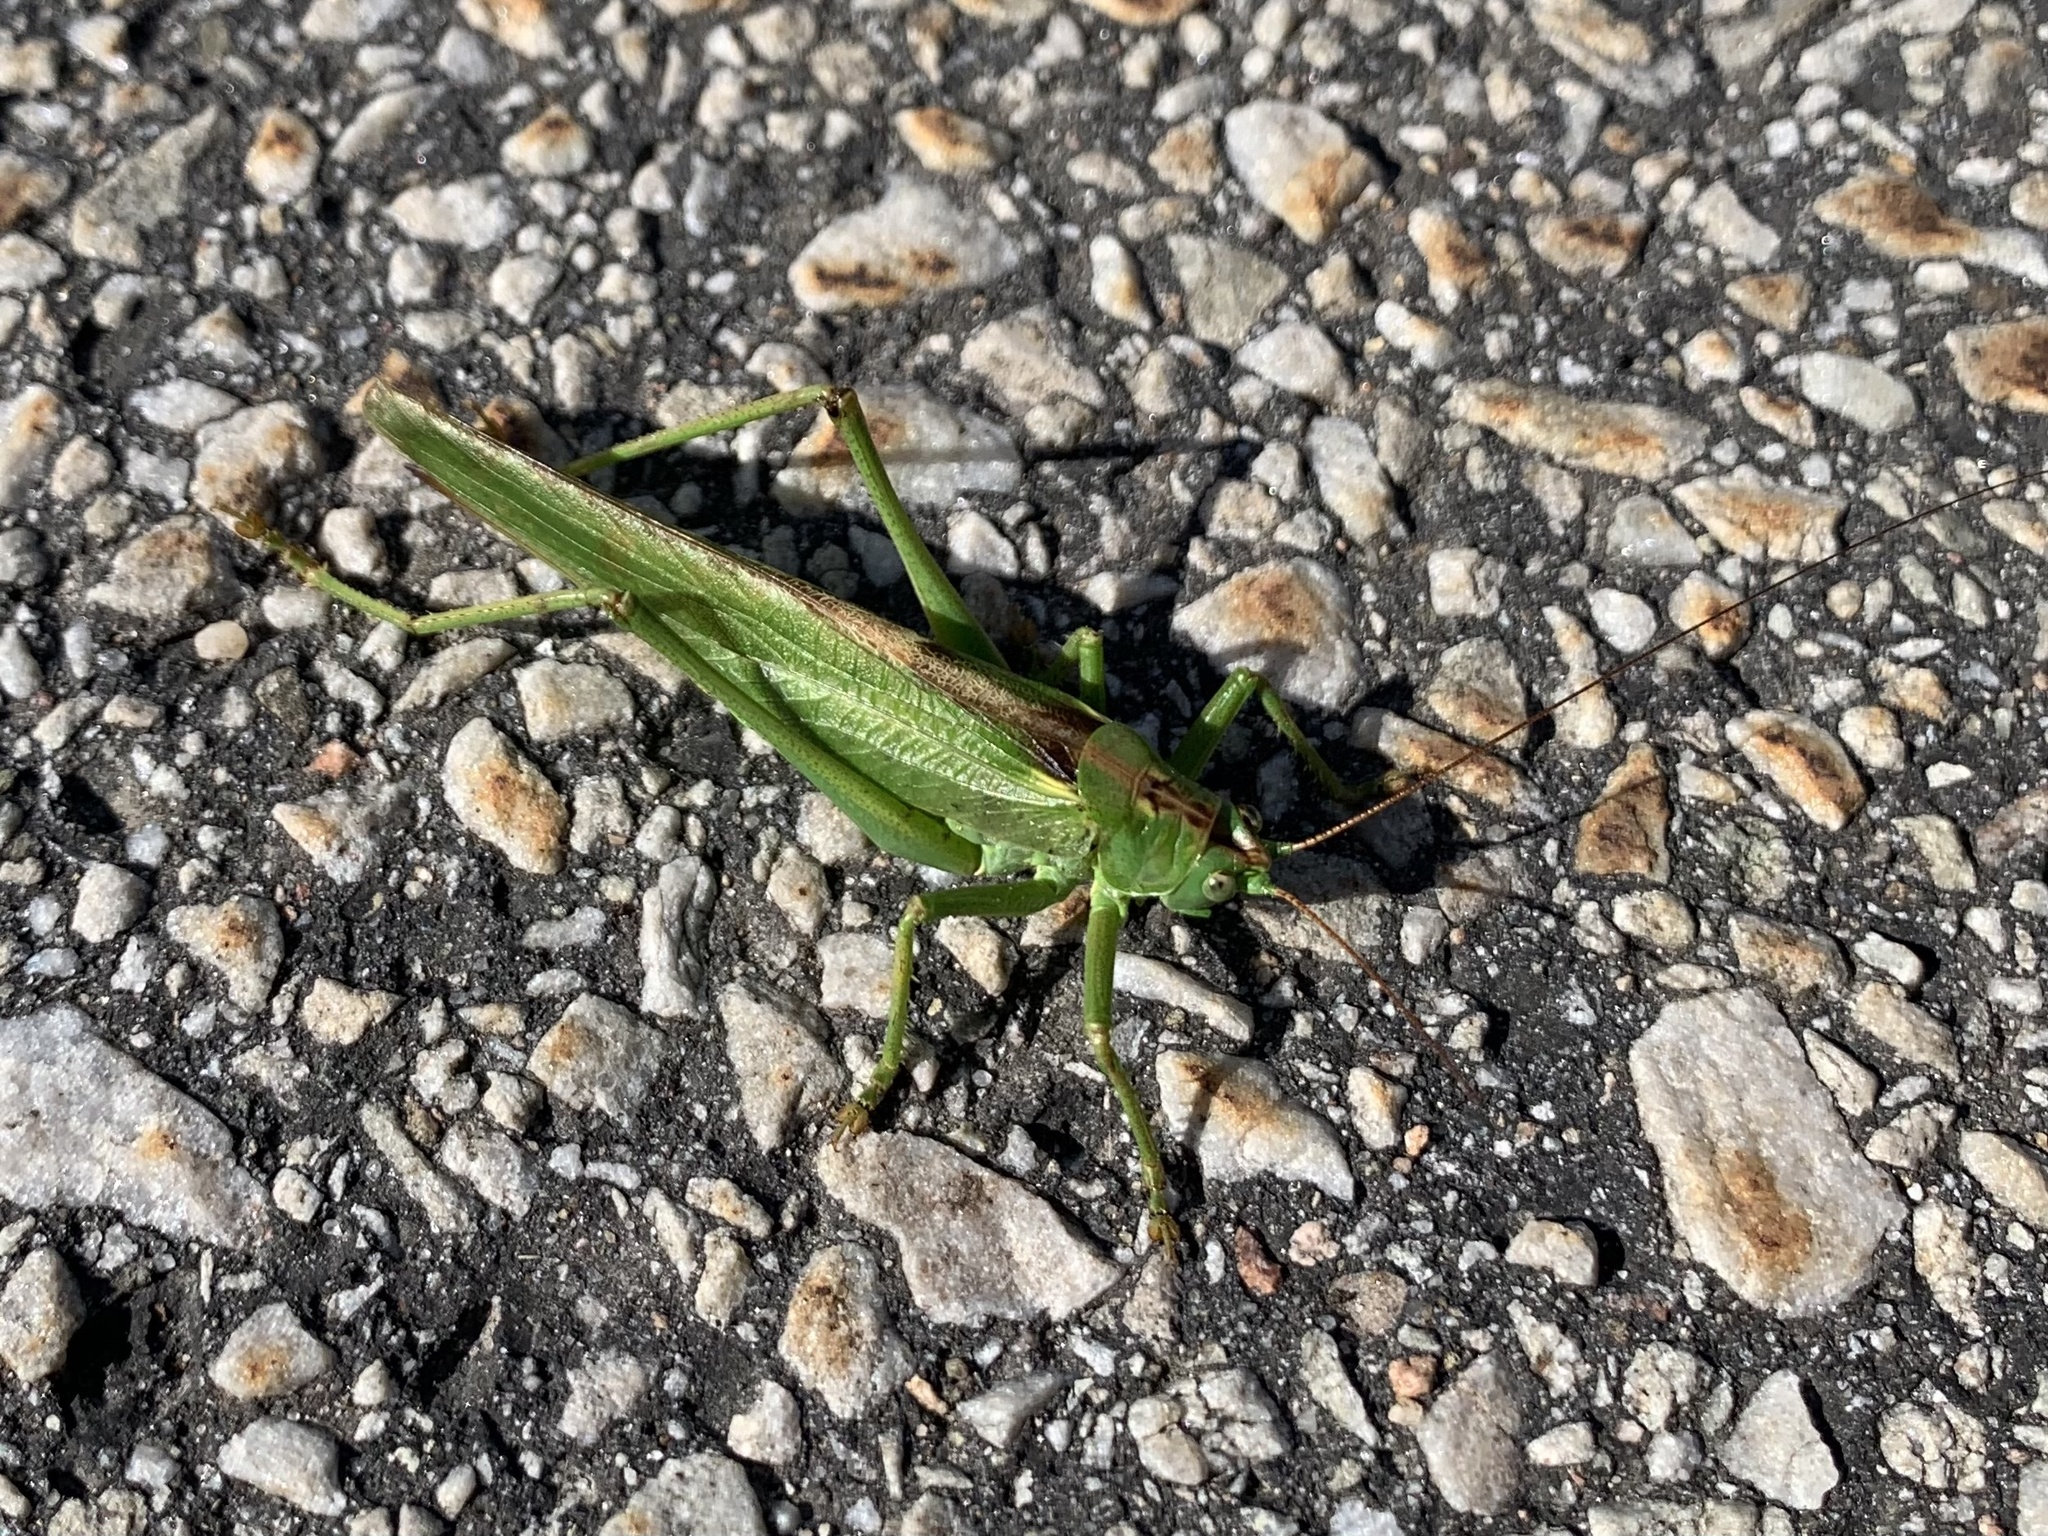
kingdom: Animalia
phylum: Arthropoda
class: Insecta
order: Orthoptera
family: Tettigoniidae
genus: Tettigonia
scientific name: Tettigonia viridissima
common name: Great green bush-cricket
